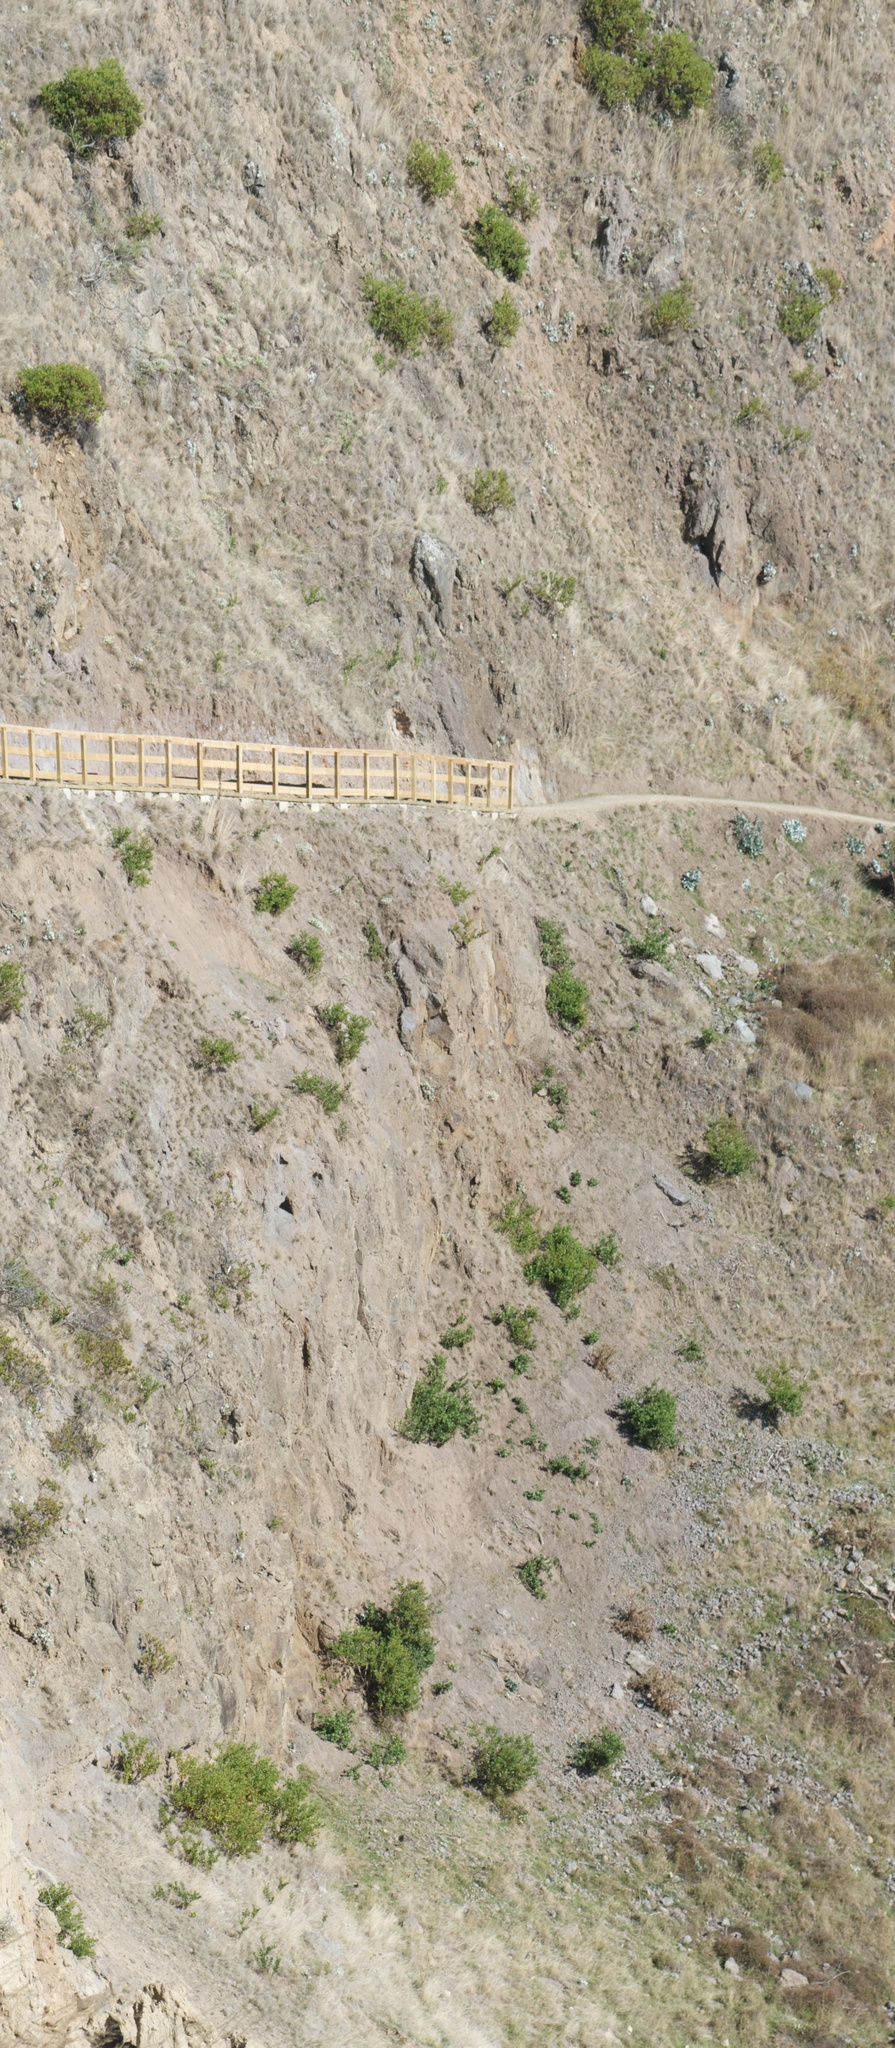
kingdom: Plantae
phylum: Tracheophyta
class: Magnoliopsida
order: Asterales
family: Asteraceae
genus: Osteospermum
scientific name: Osteospermum moniliferum
